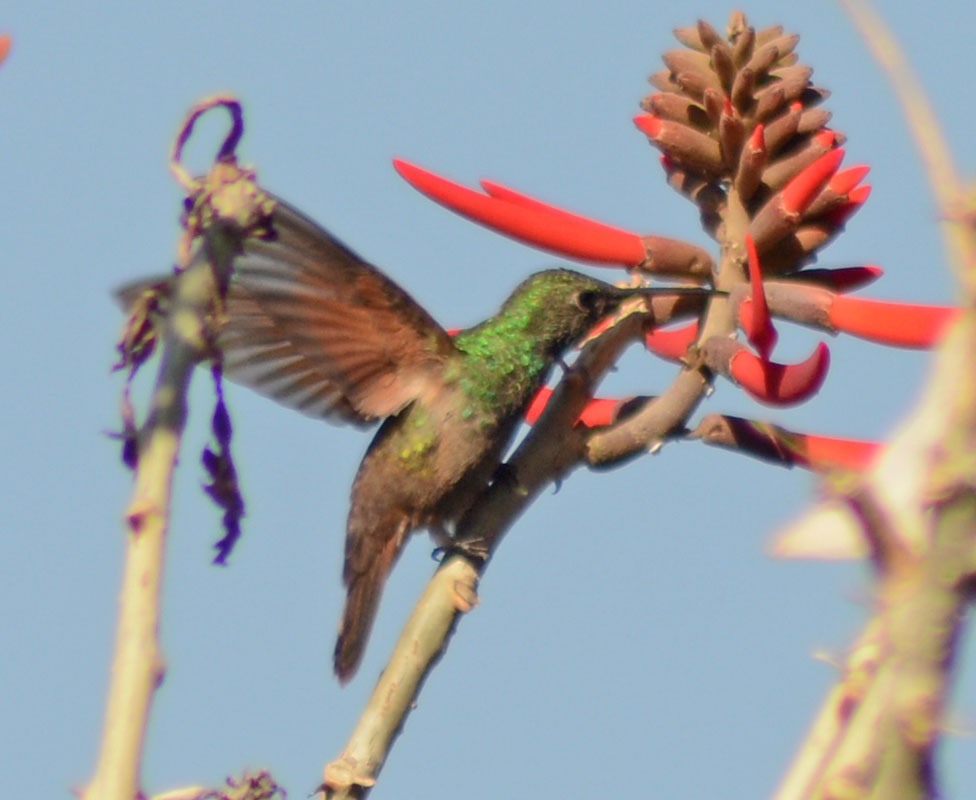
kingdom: Animalia
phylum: Chordata
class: Aves
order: Apodiformes
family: Trochilidae
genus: Saucerottia
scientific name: Saucerottia beryllina
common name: Berylline hummingbird
